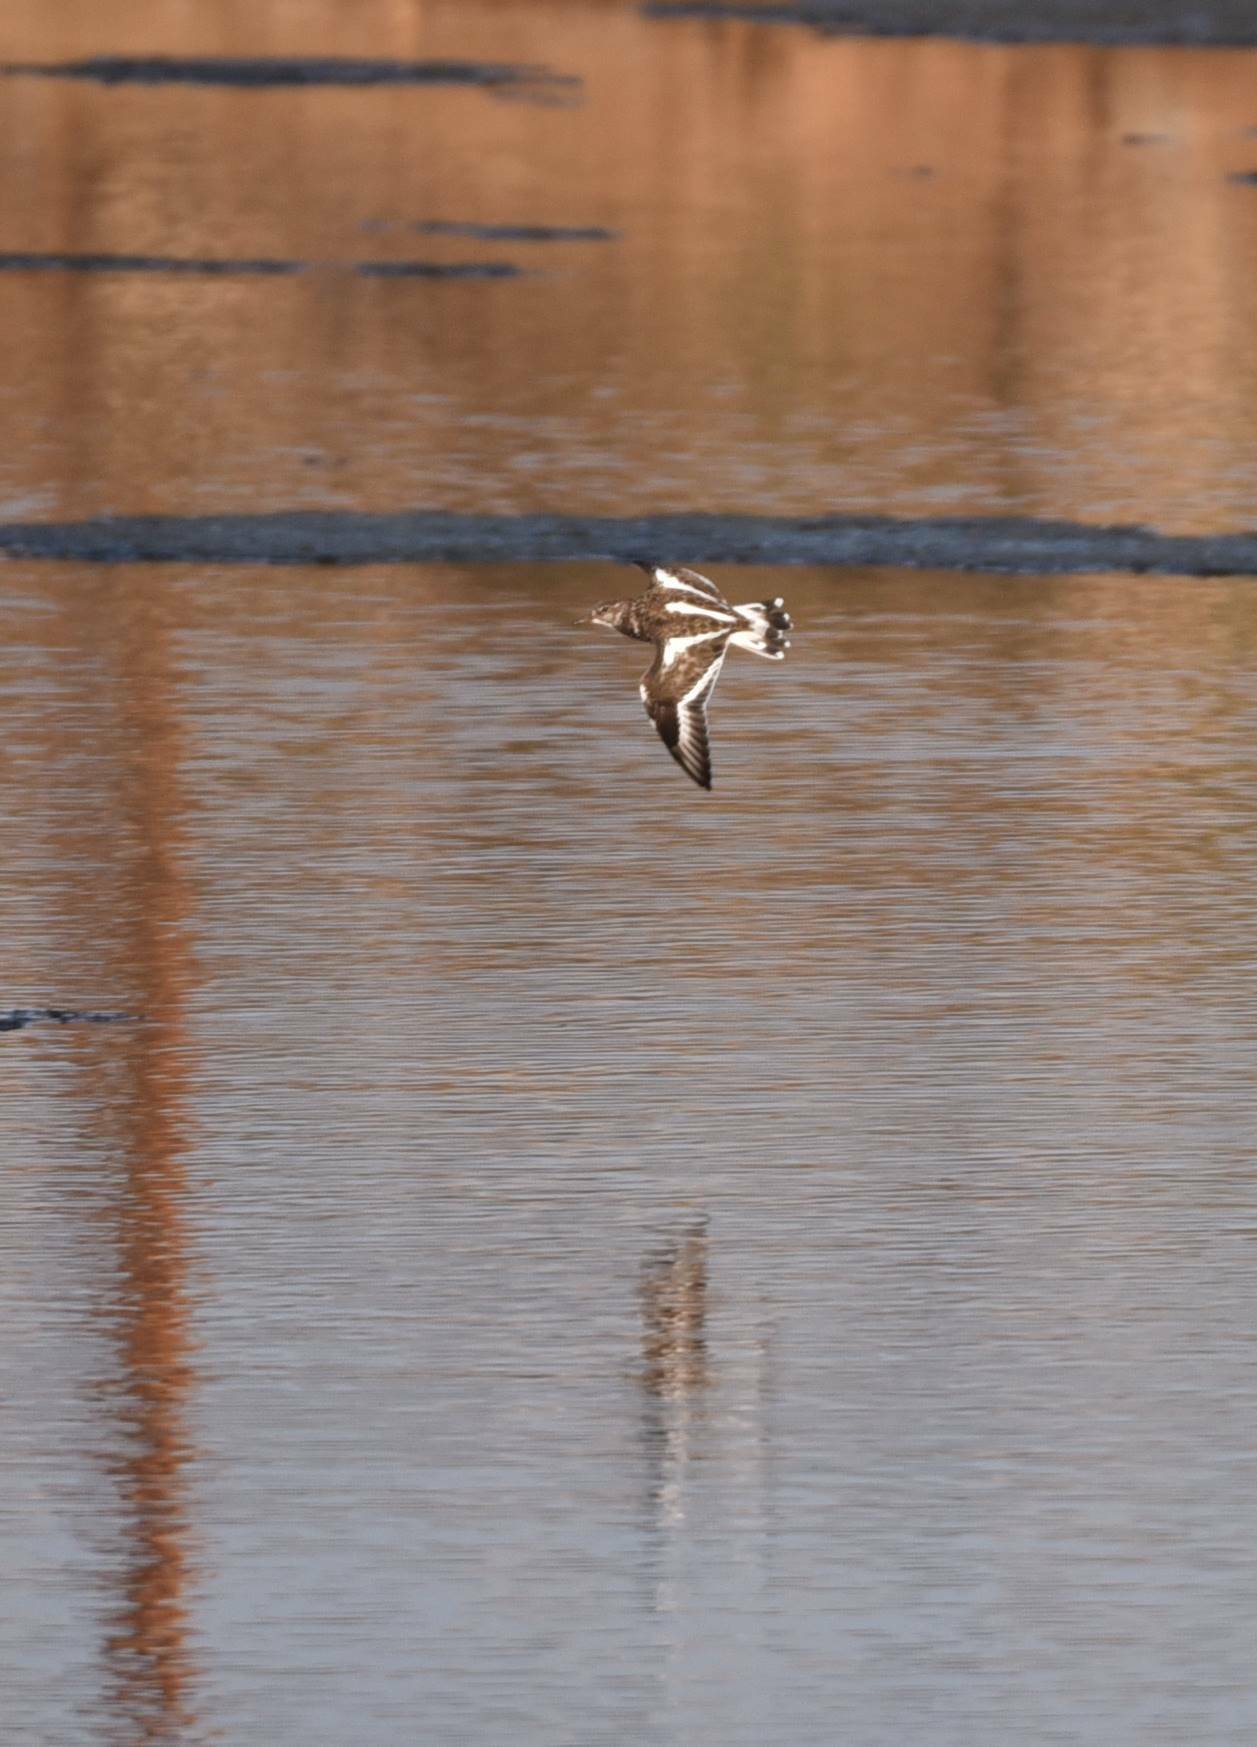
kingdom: Animalia
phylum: Chordata
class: Aves
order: Charadriiformes
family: Scolopacidae
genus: Arenaria
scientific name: Arenaria interpres
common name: Ruddy turnstone
